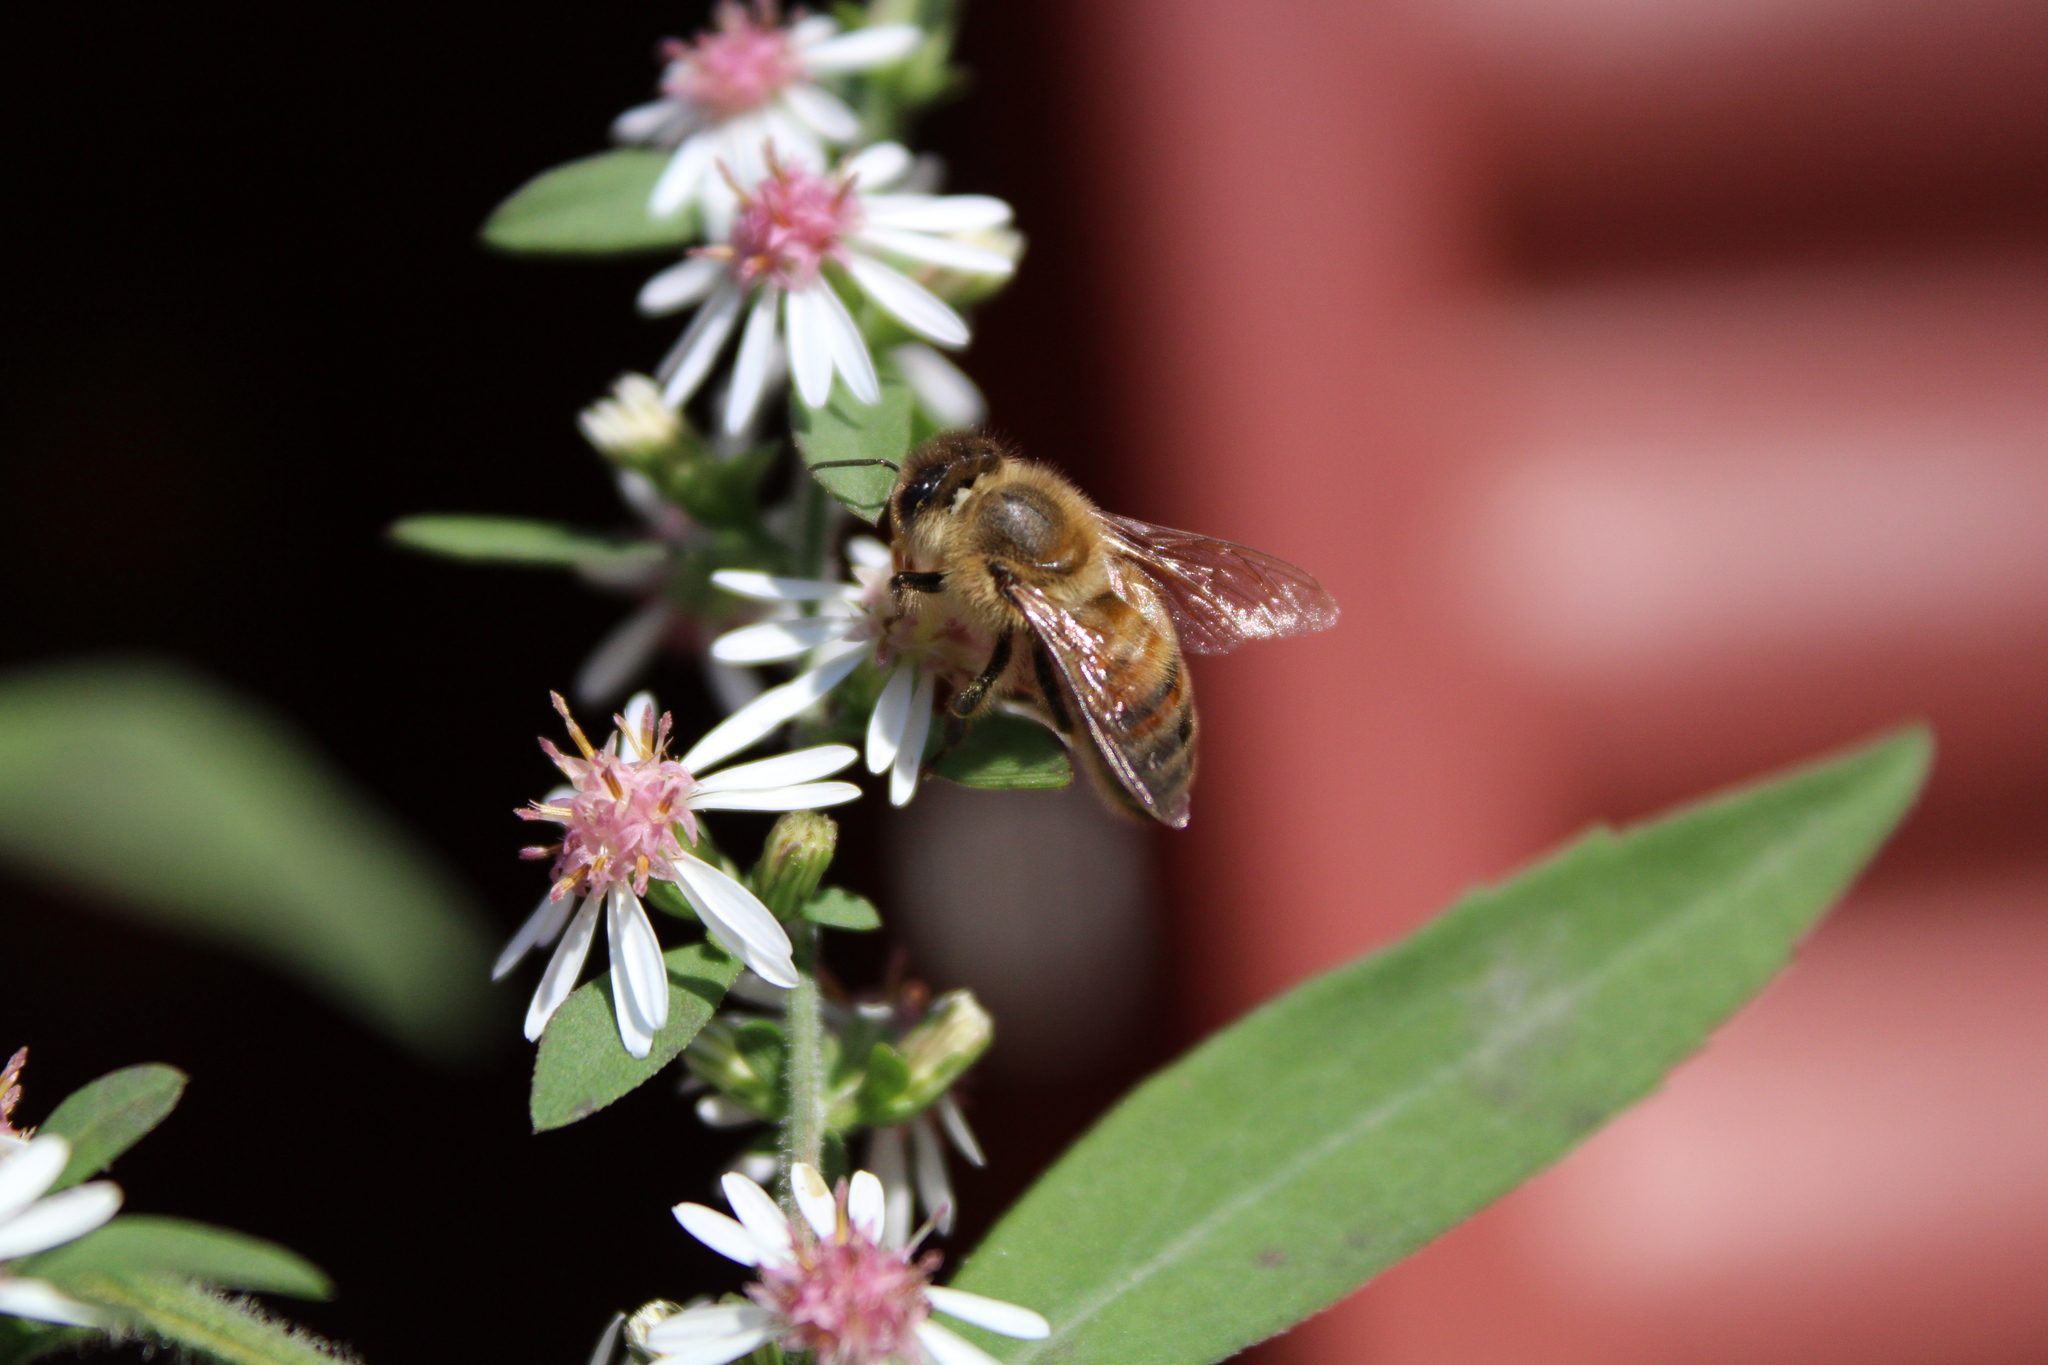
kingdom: Animalia
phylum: Arthropoda
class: Insecta
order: Hymenoptera
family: Apidae
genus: Apis
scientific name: Apis mellifera
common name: Honey bee
